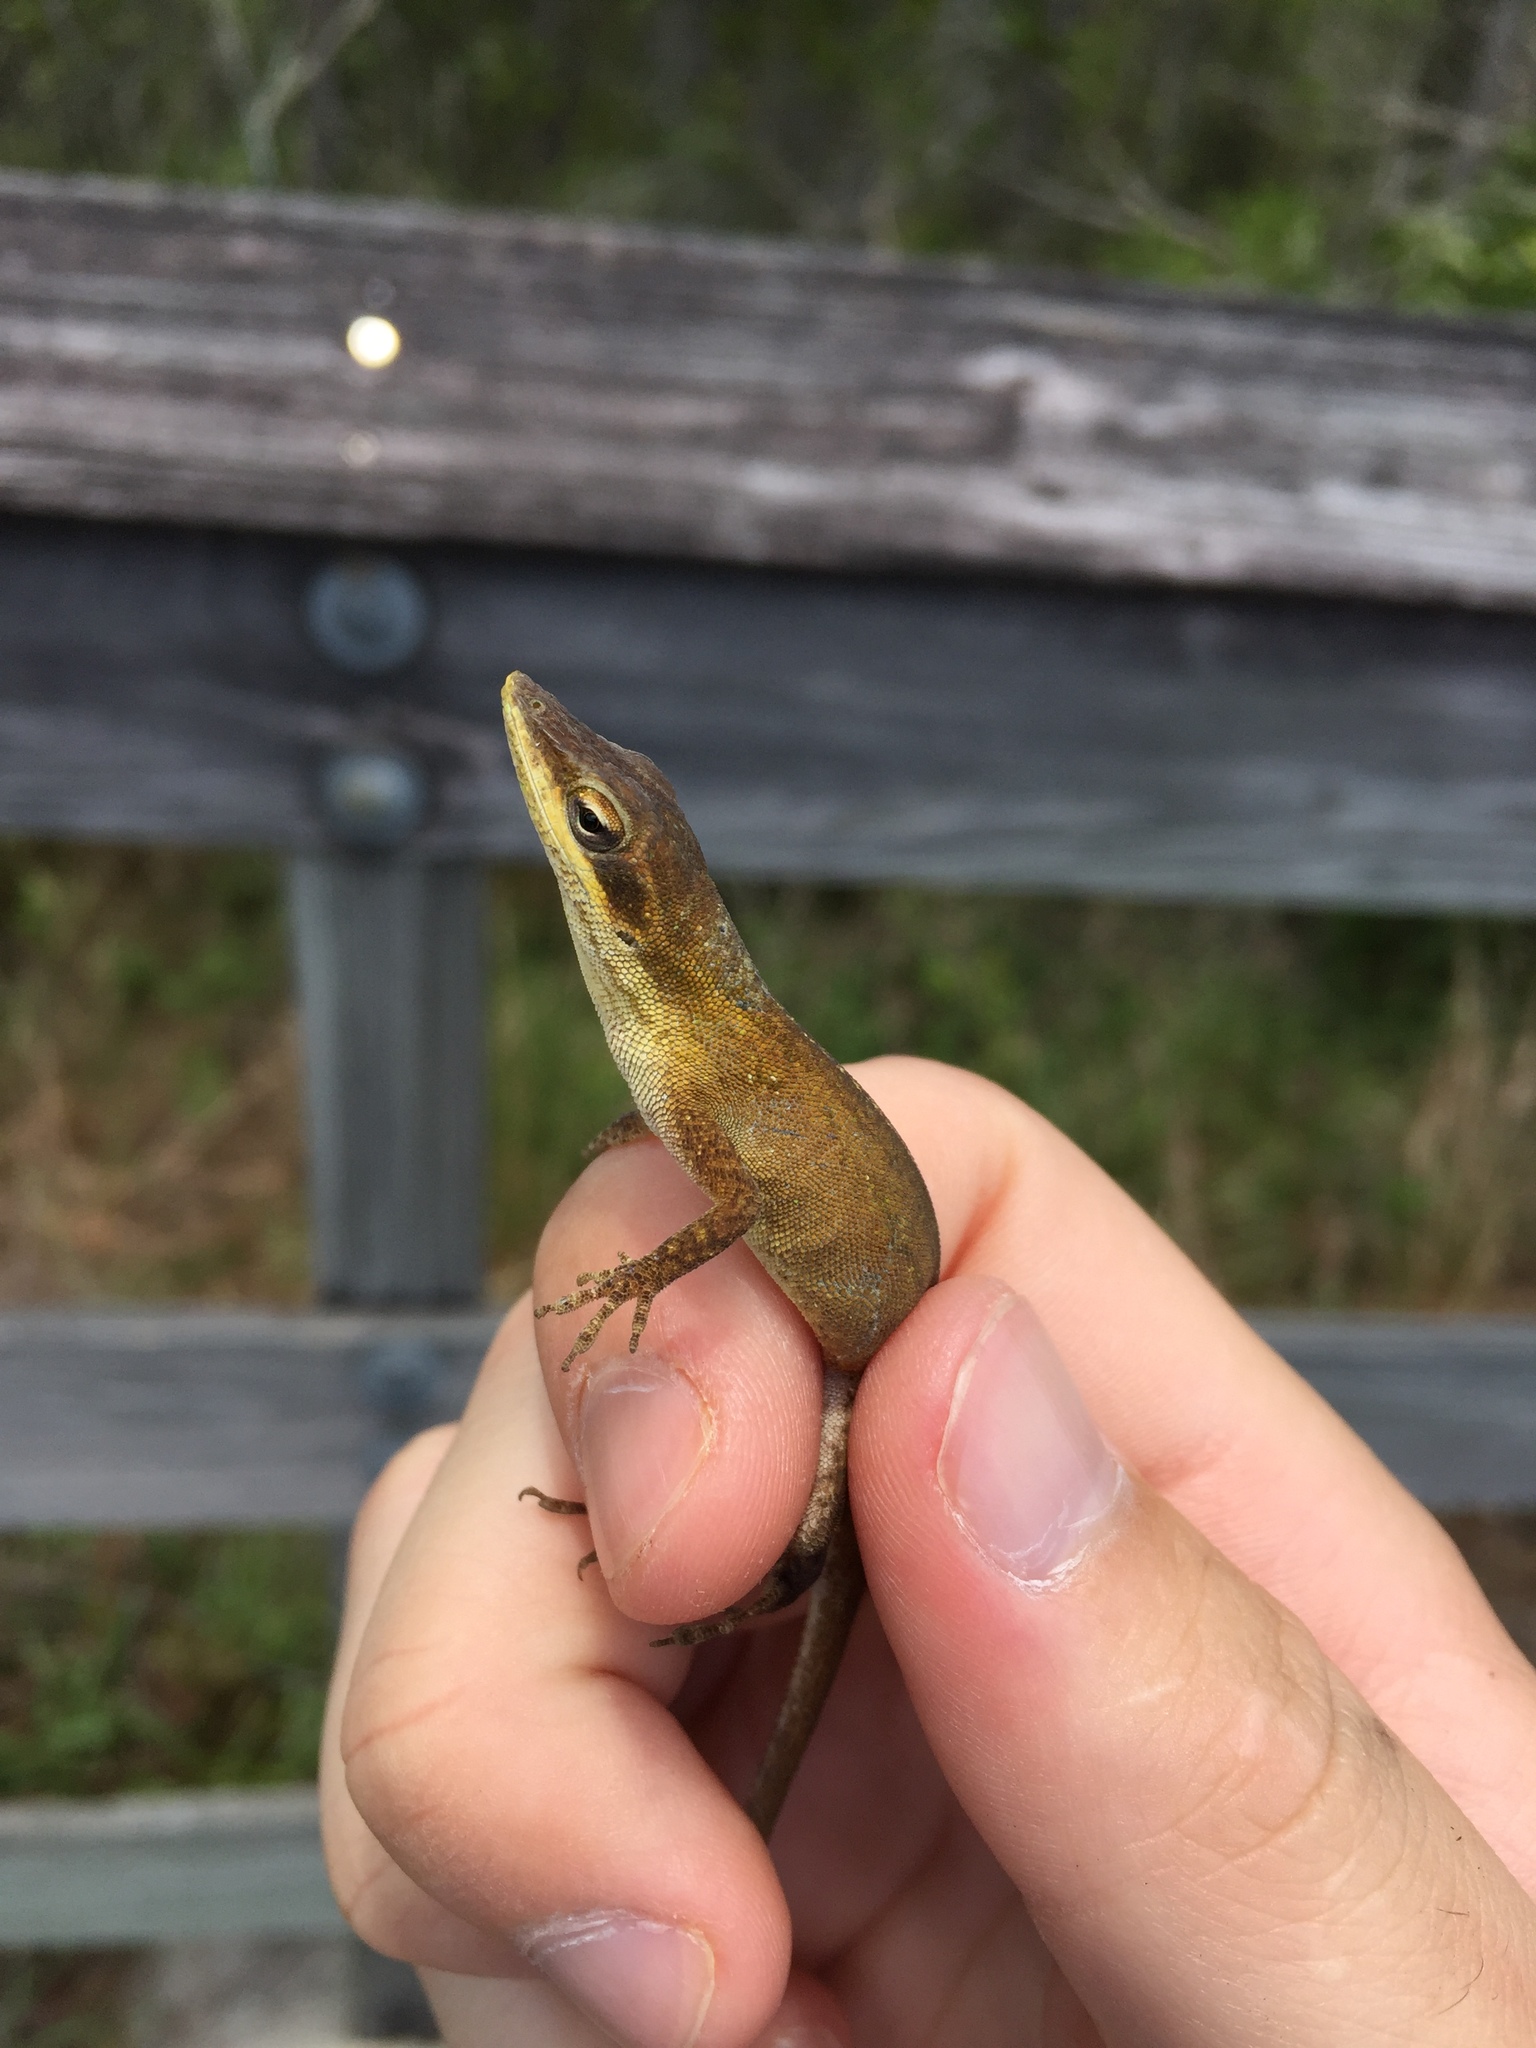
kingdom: Animalia
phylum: Chordata
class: Squamata
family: Dactyloidae
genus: Anolis
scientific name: Anolis carolinensis
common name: Green anole
